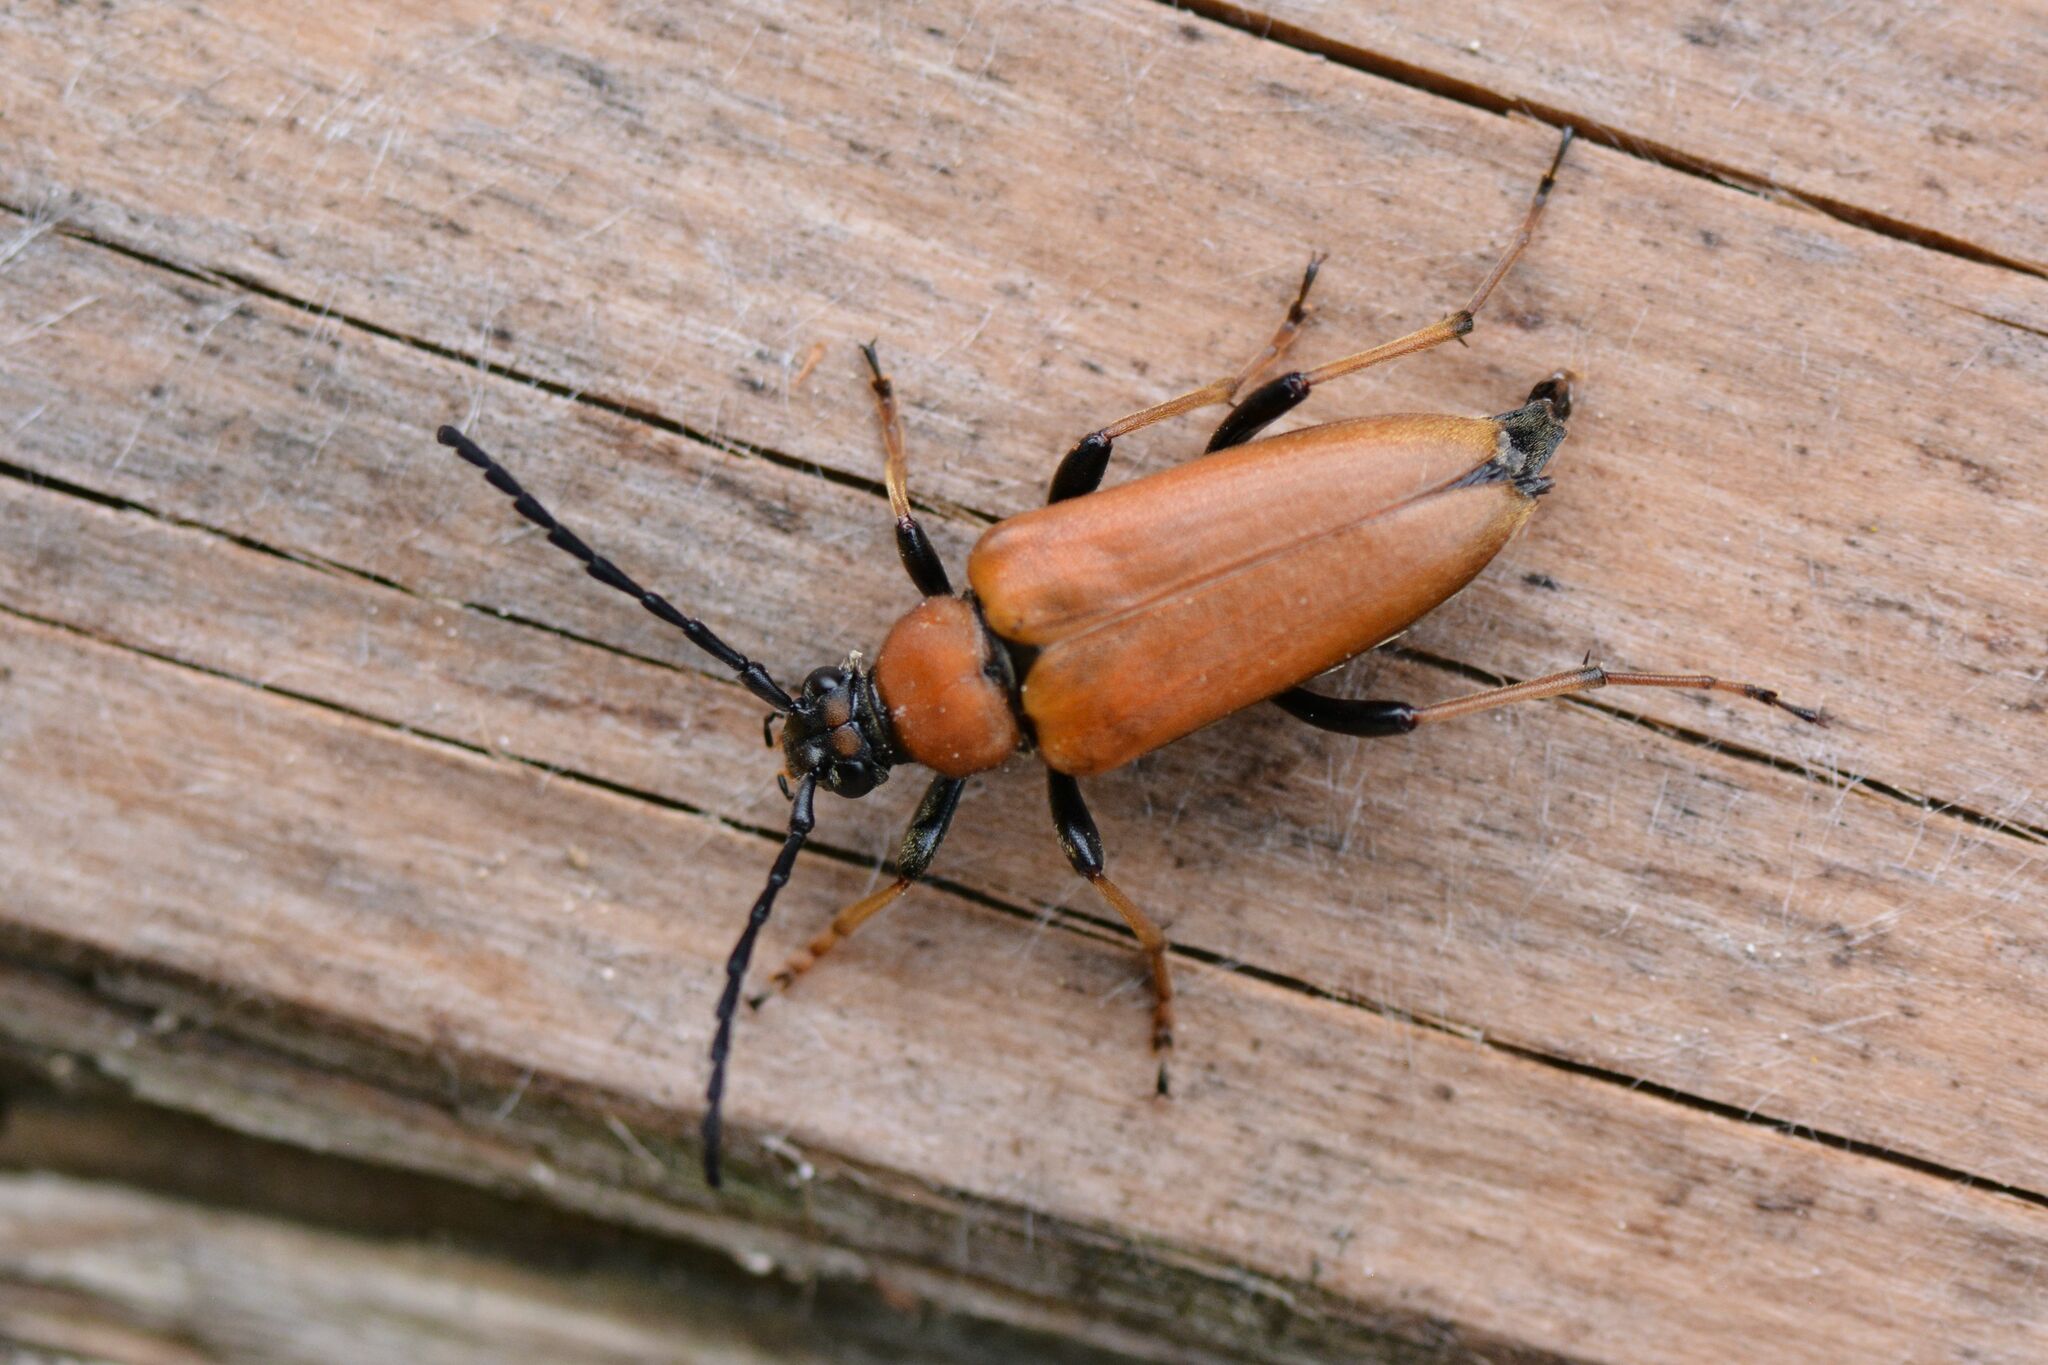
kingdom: Animalia
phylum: Arthropoda
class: Insecta
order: Coleoptera
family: Cerambycidae
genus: Stictoleptura
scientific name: Stictoleptura rubra
